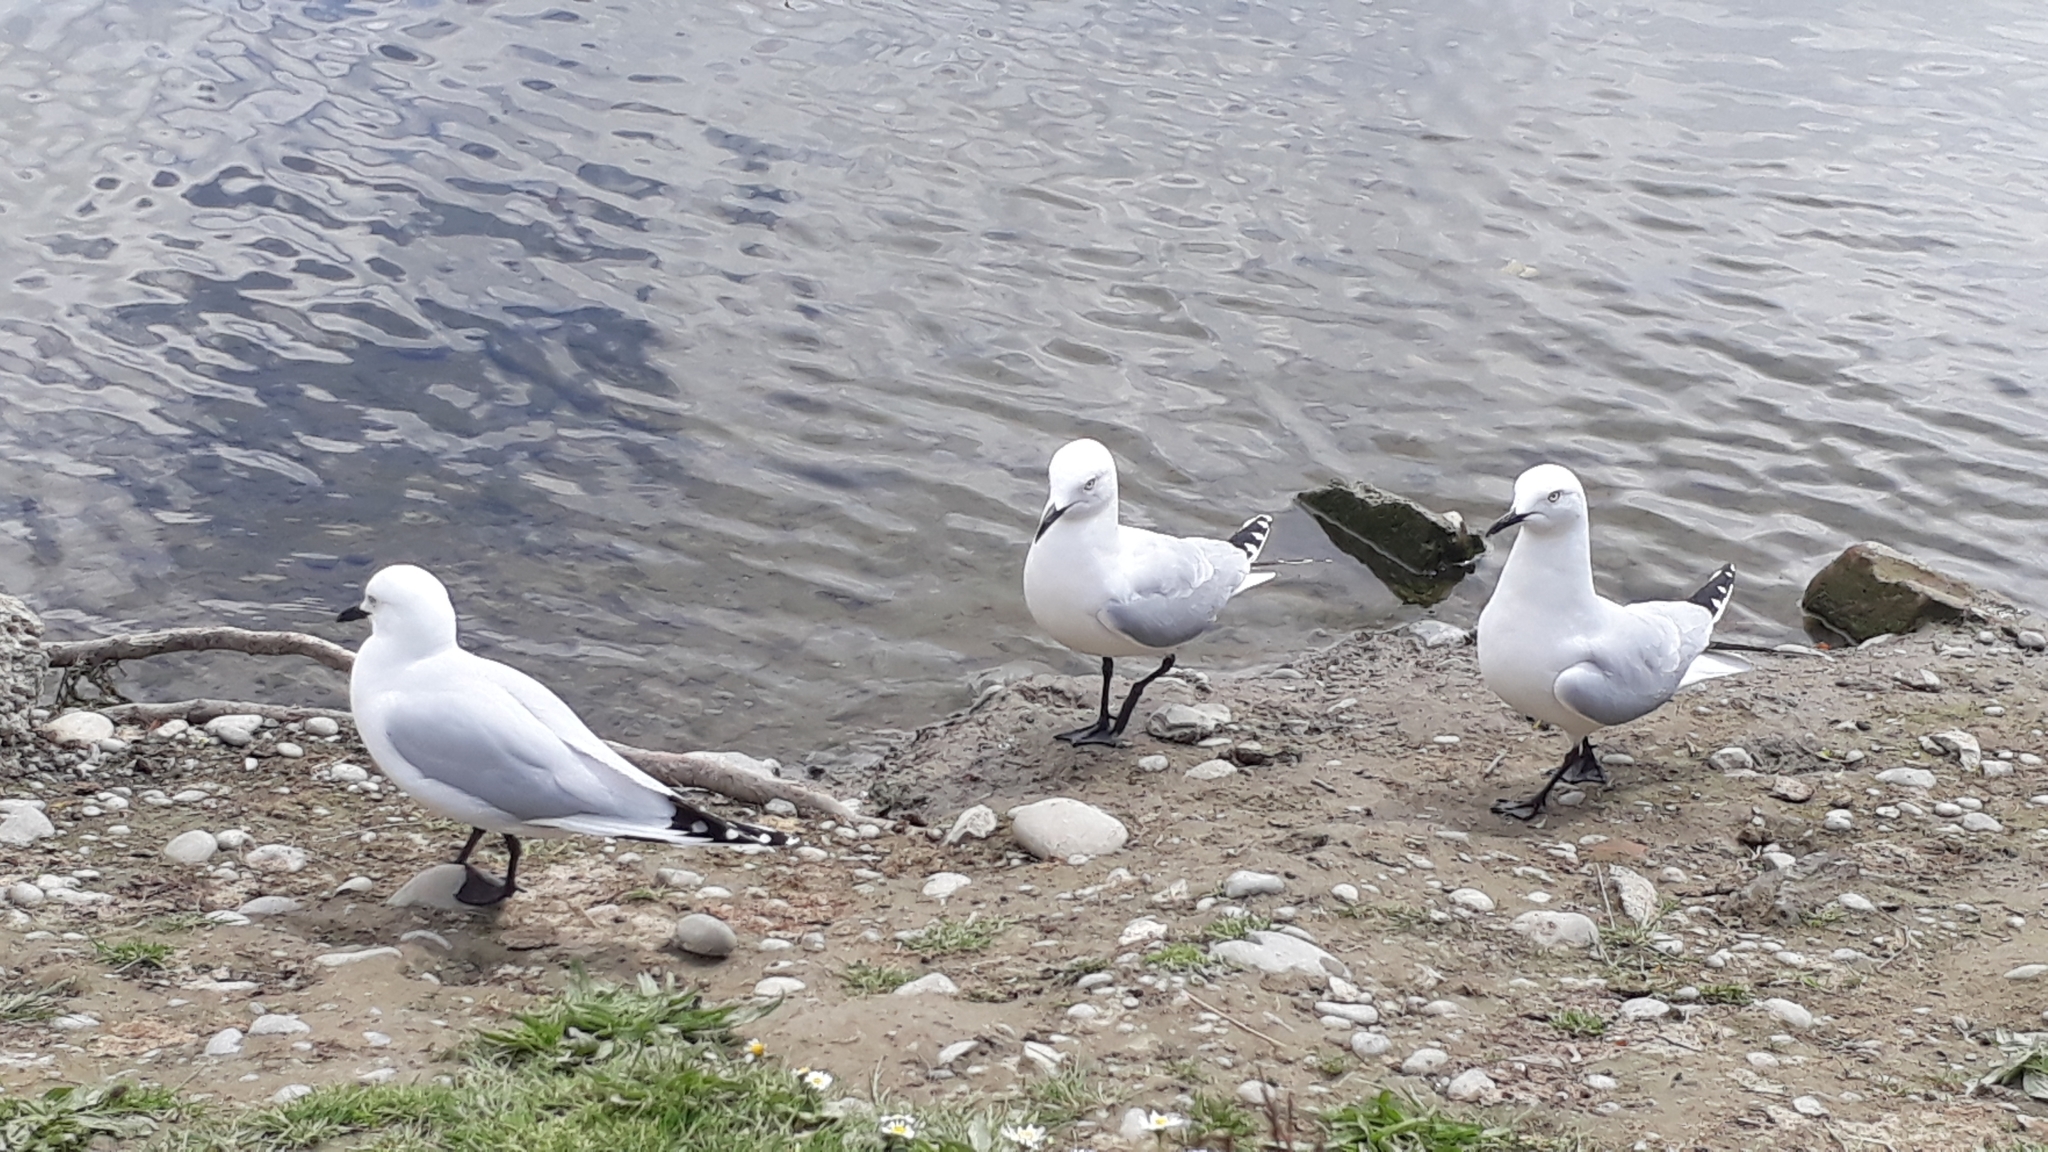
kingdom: Animalia
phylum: Chordata
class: Aves
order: Charadriiformes
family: Laridae
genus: Chroicocephalus
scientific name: Chroicocephalus bulleri
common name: Black-billed gull
